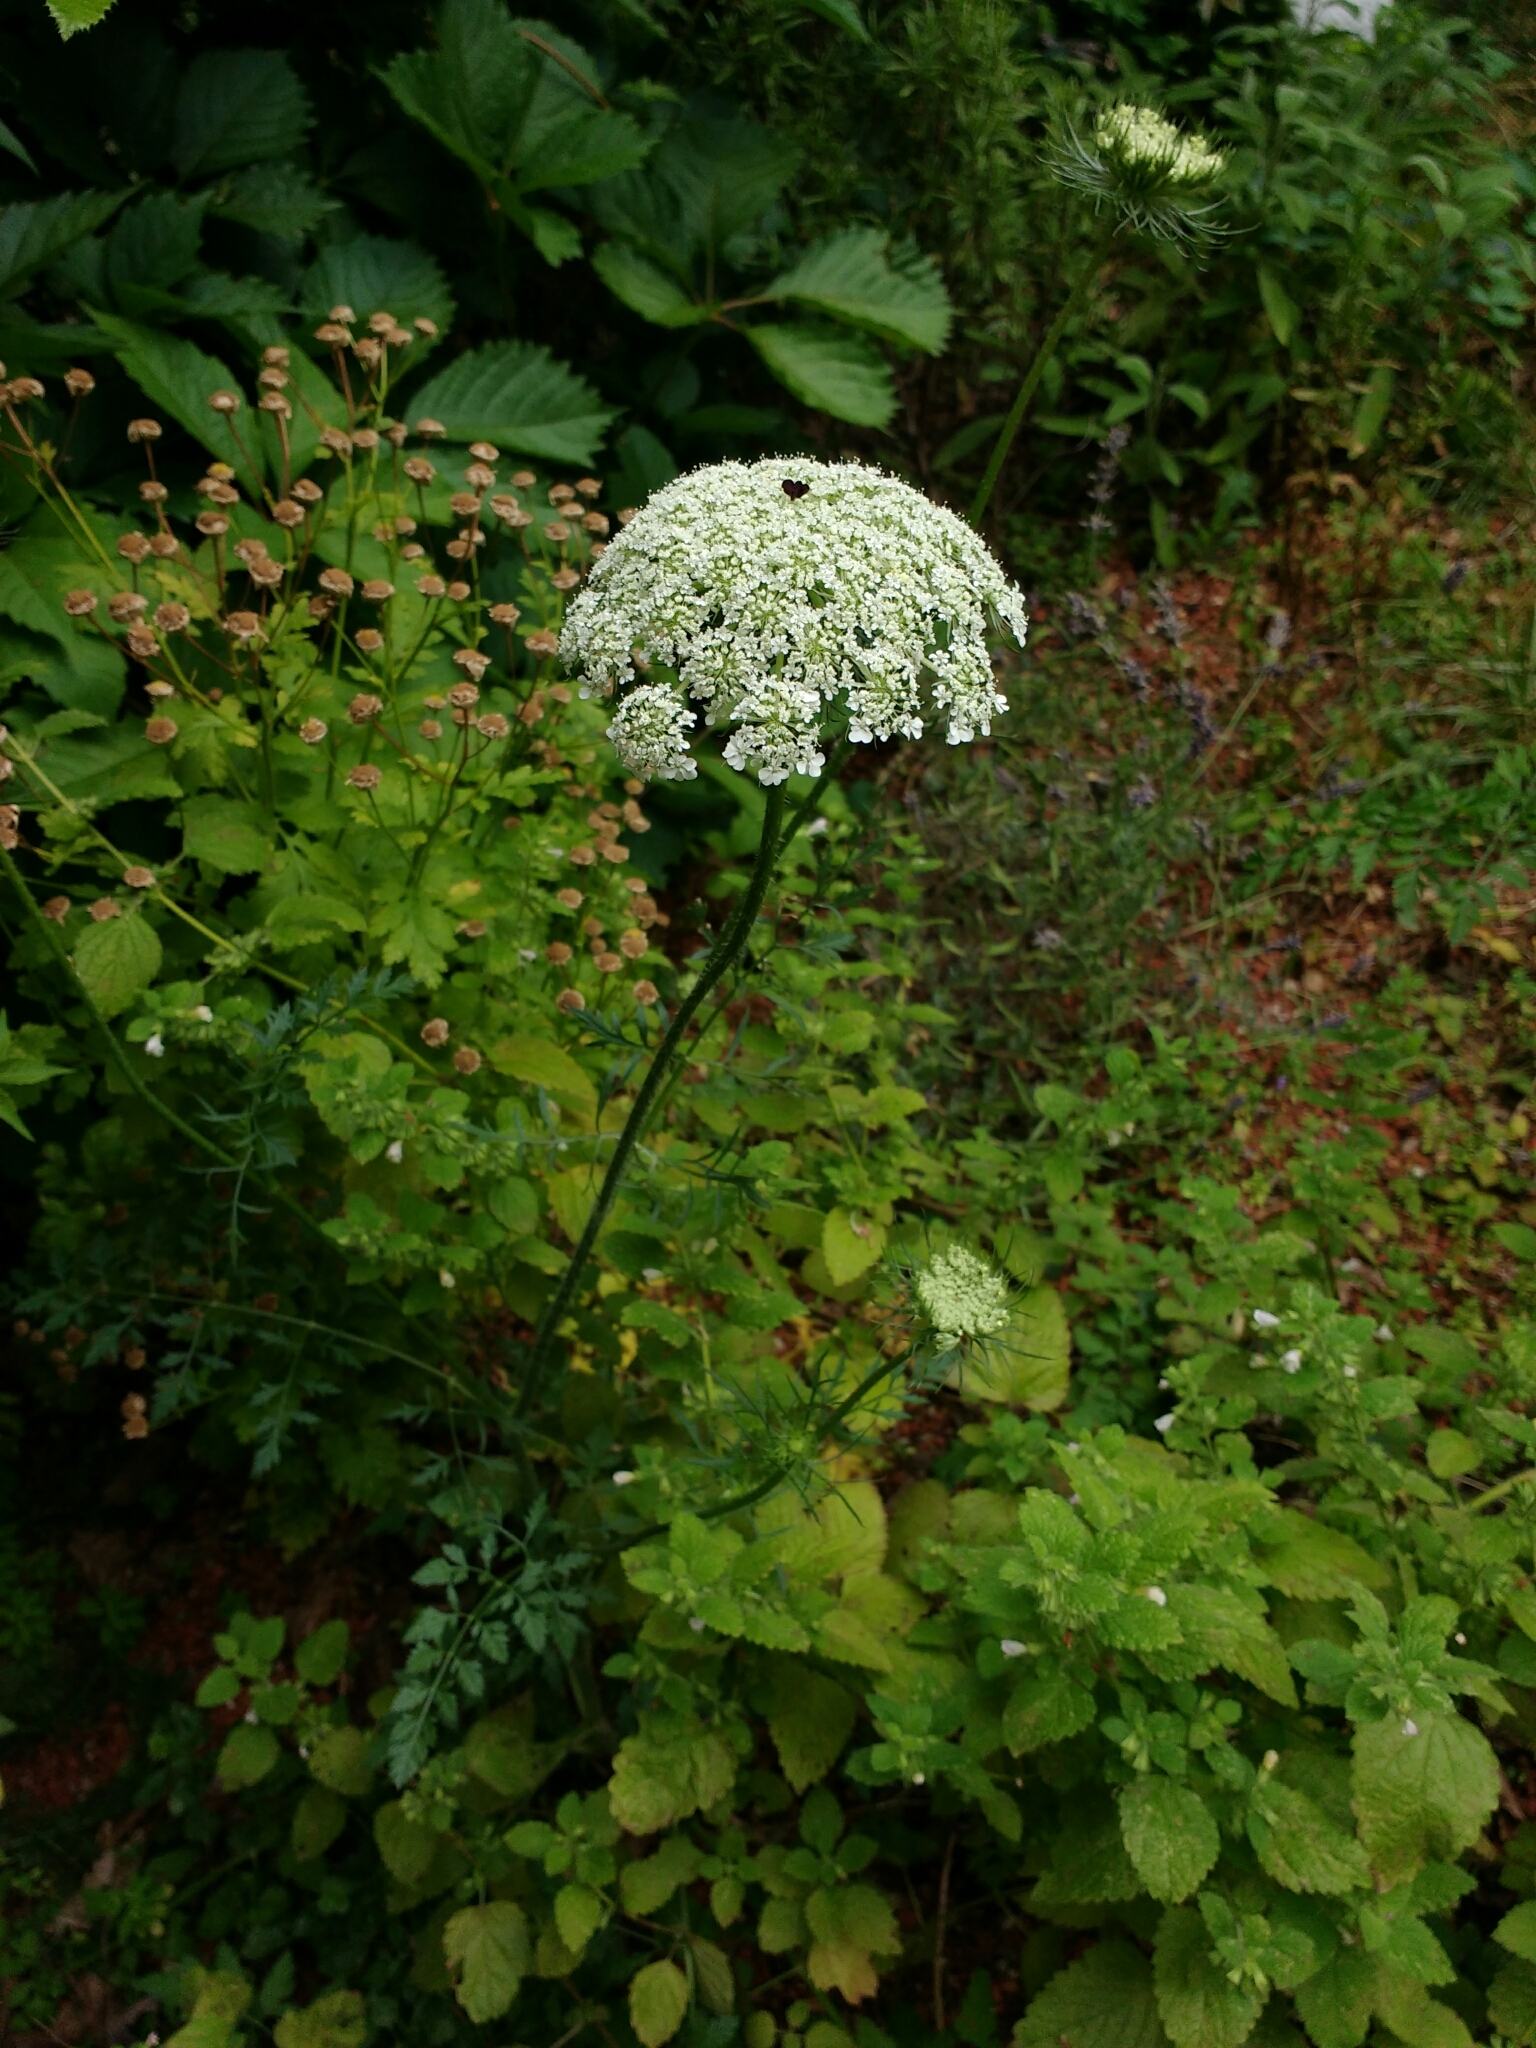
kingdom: Plantae
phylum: Tracheophyta
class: Magnoliopsida
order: Apiales
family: Apiaceae
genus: Daucus
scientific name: Daucus carota
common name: Wild carrot
